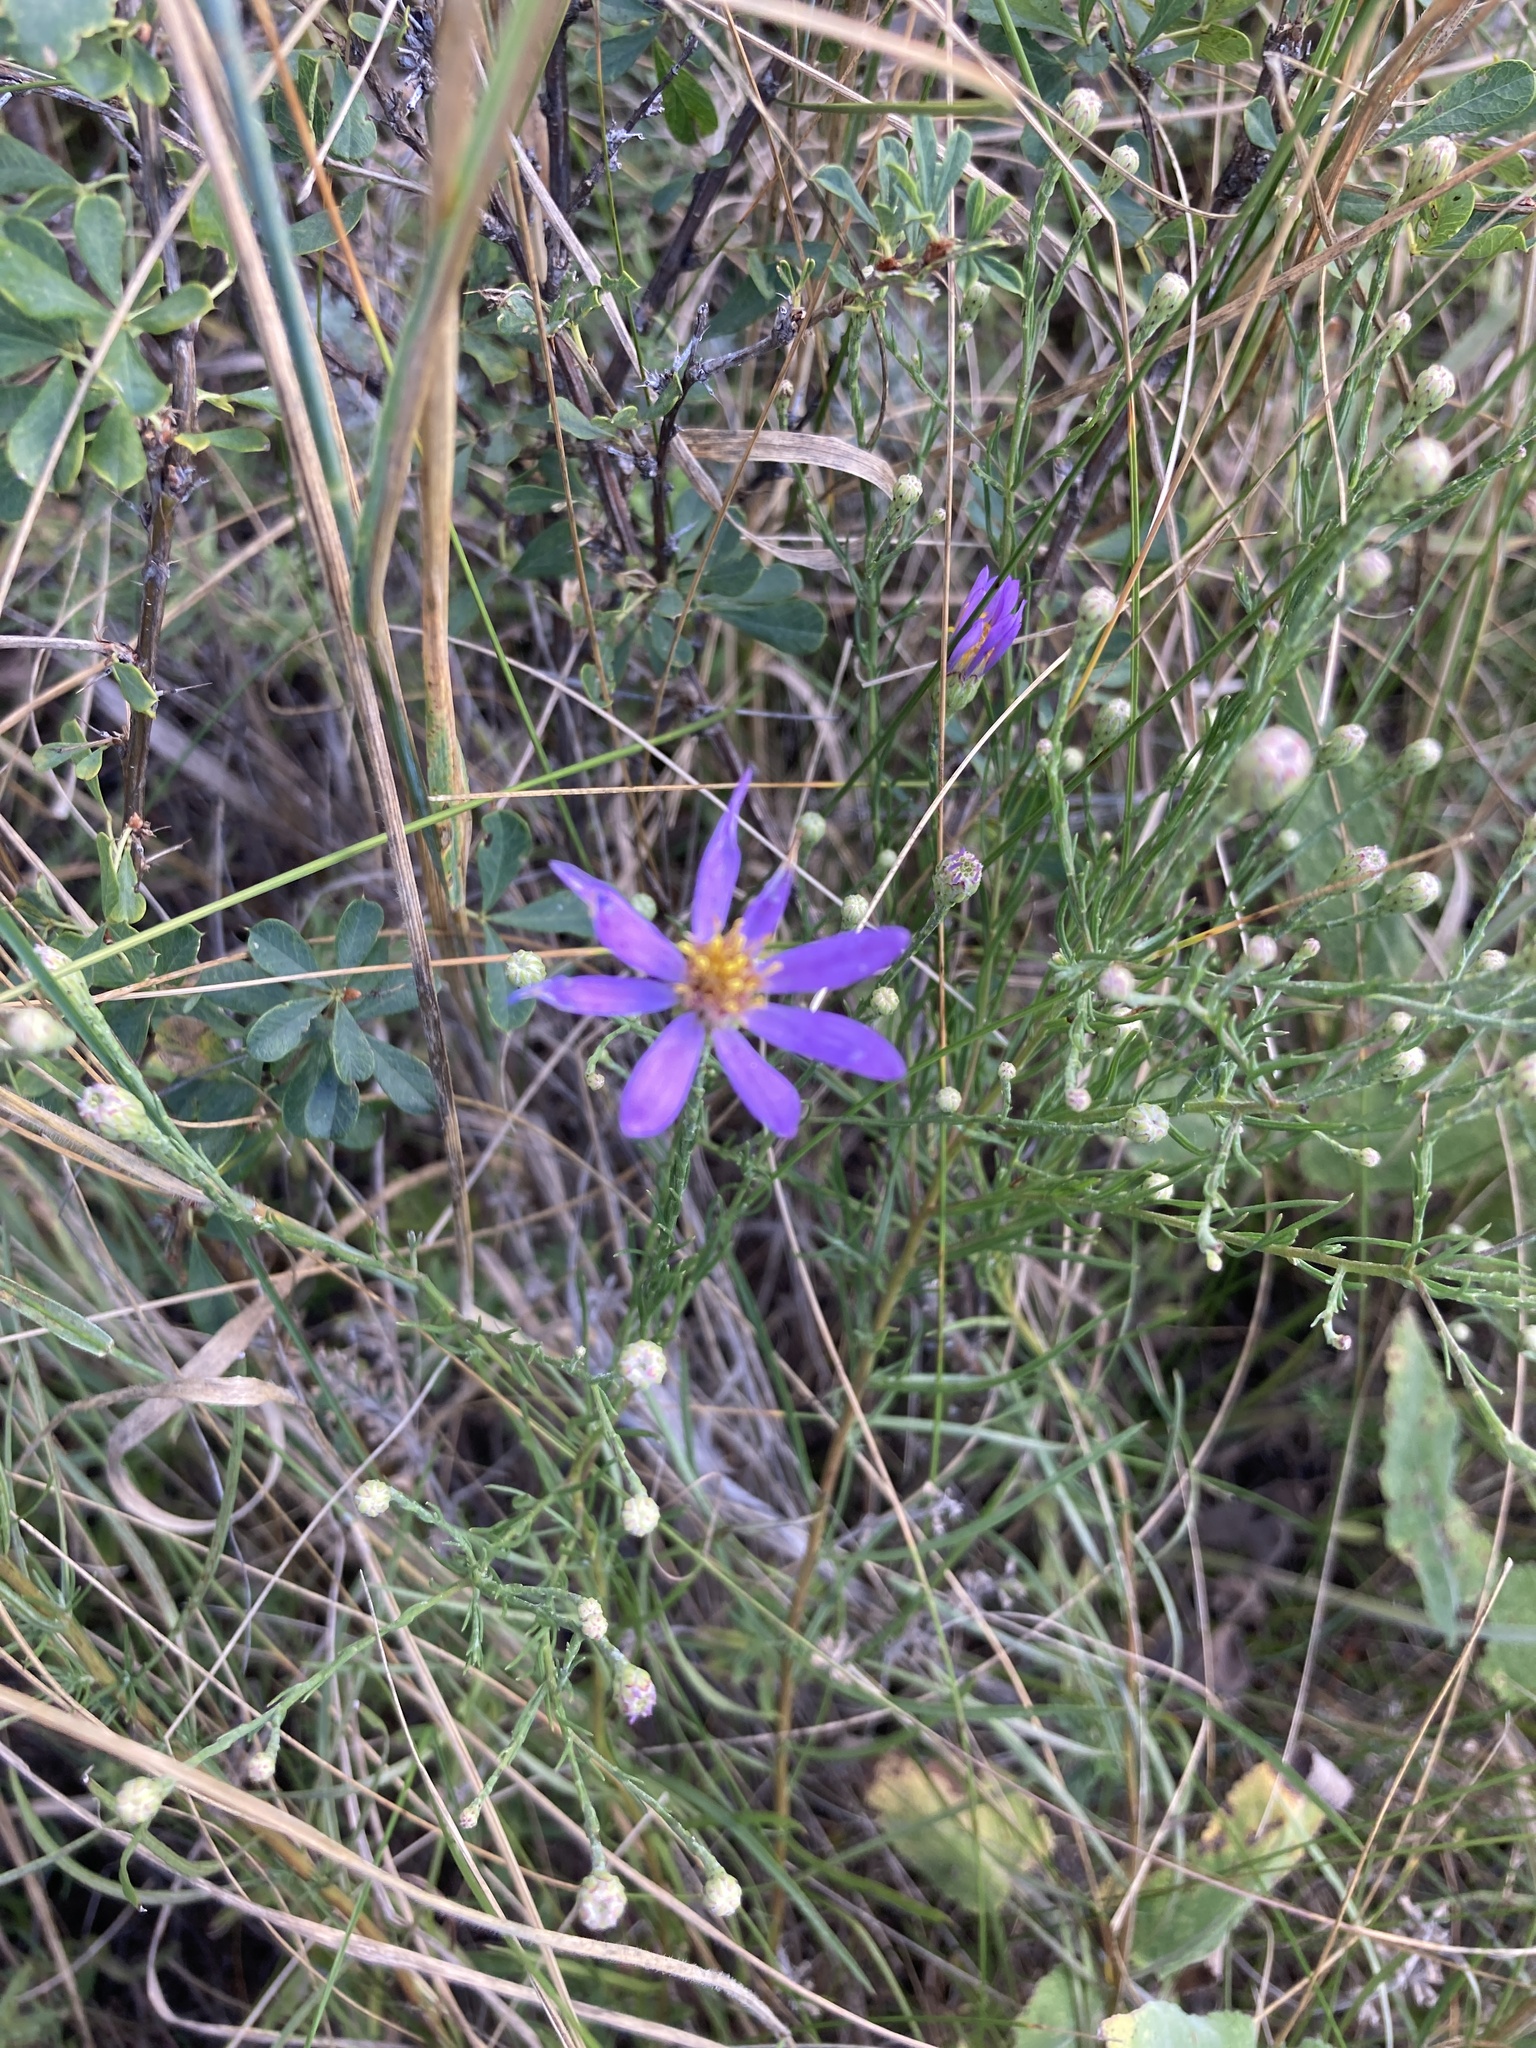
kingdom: Plantae
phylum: Tracheophyta
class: Magnoliopsida
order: Asterales
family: Asteraceae
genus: Galatella
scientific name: Galatella angustissima
